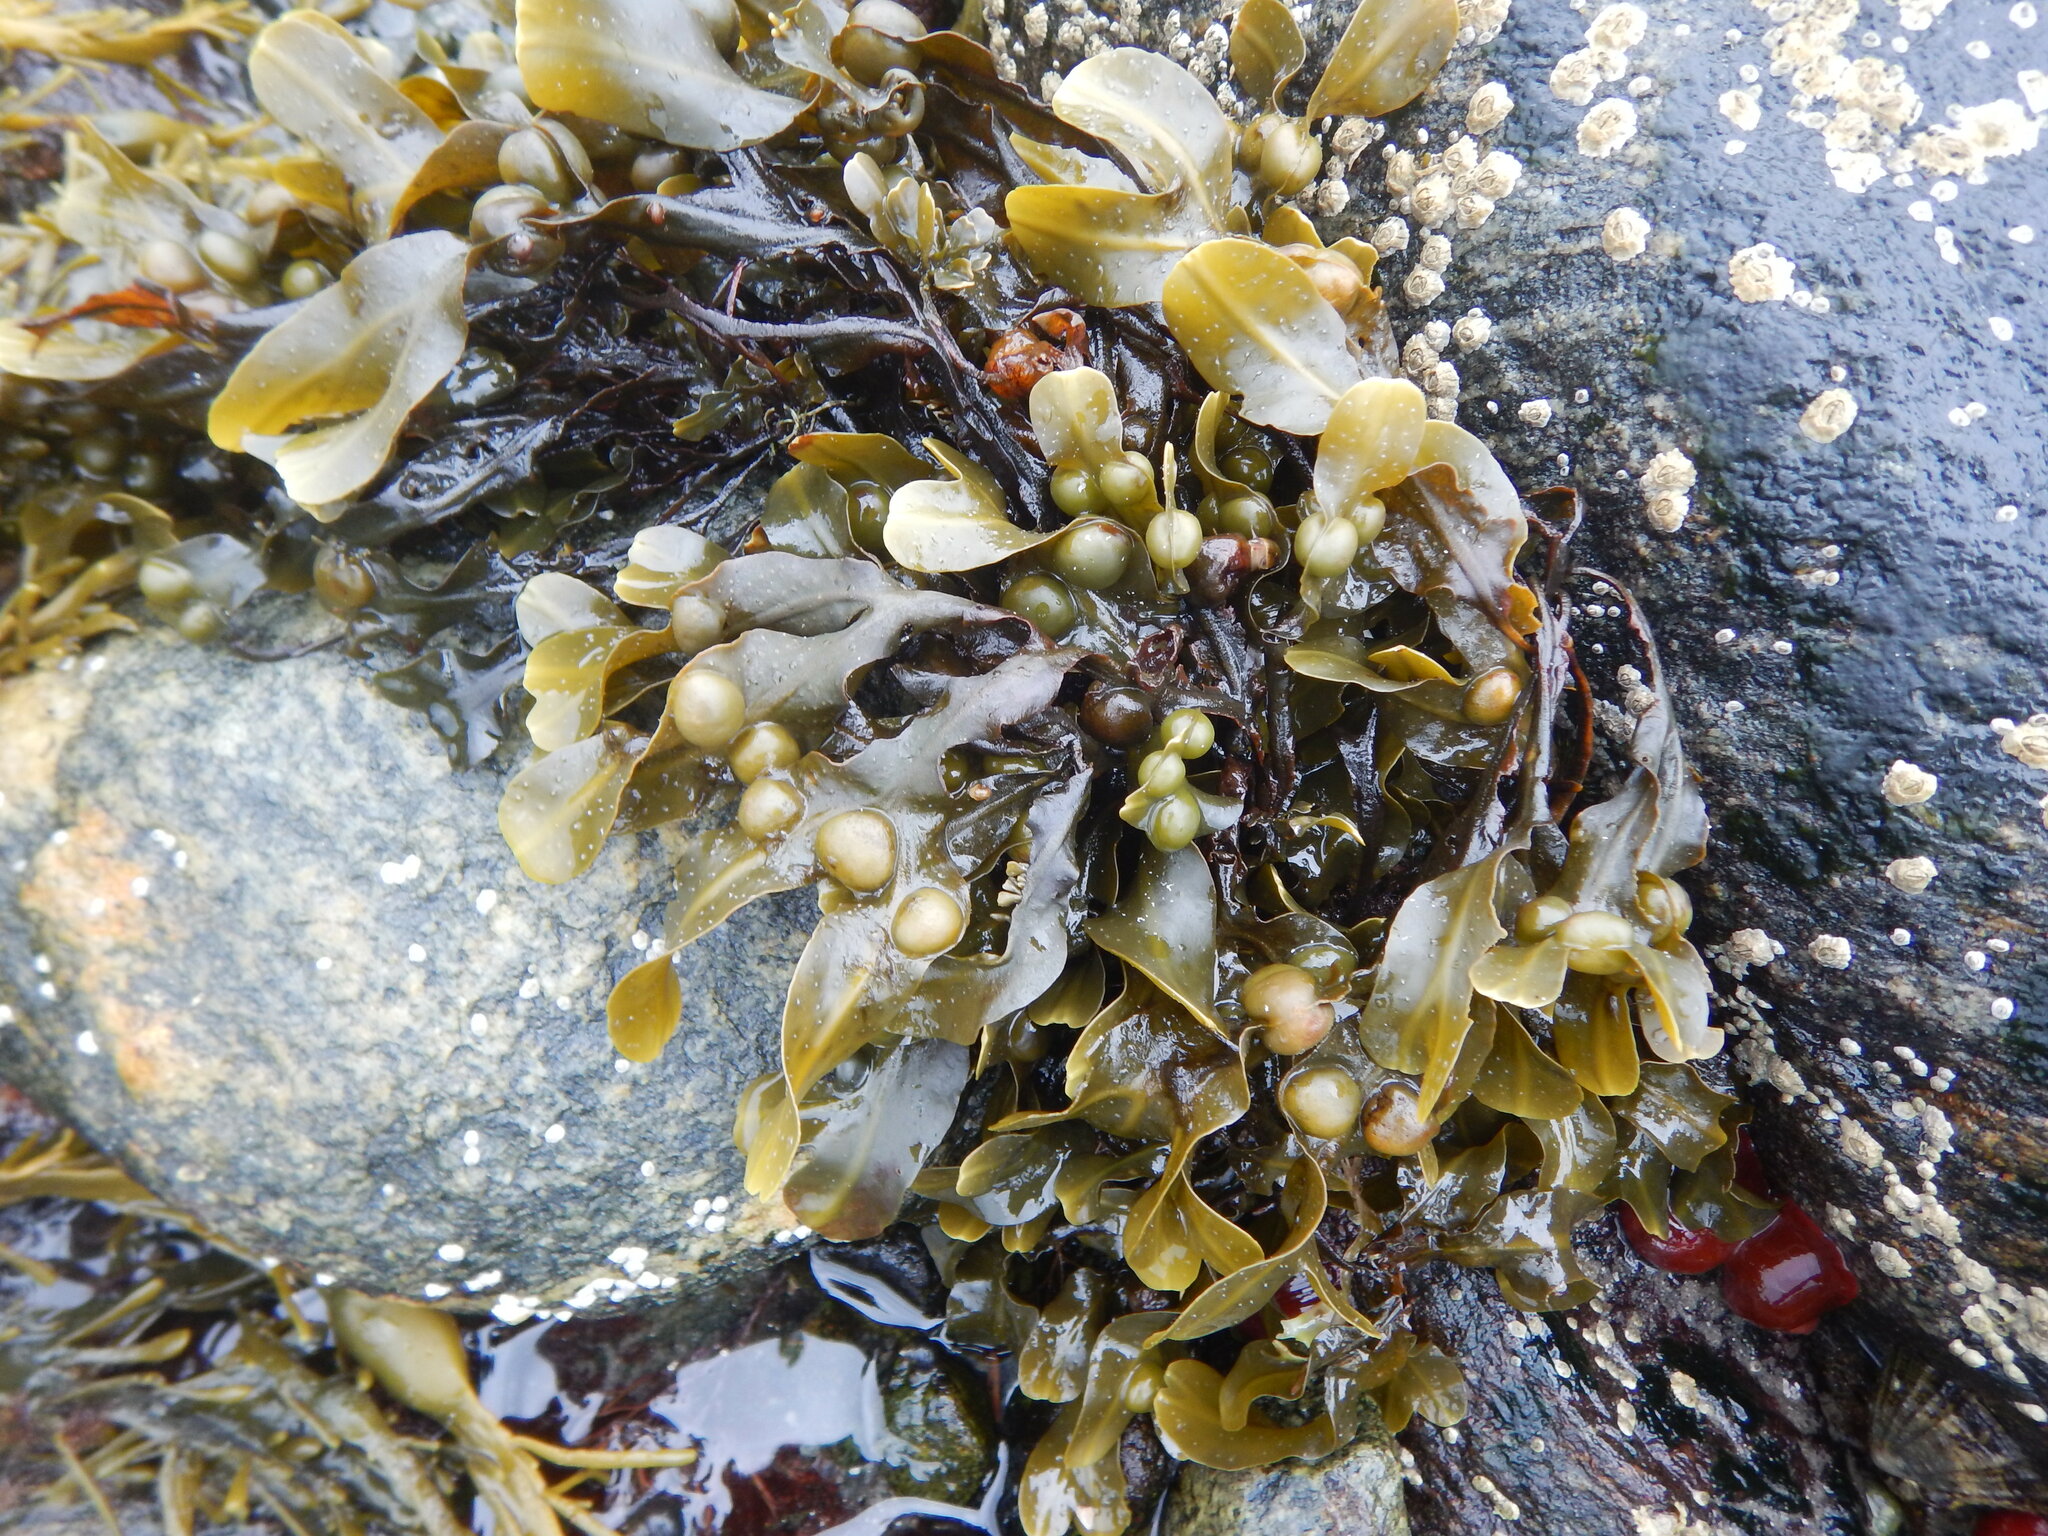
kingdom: Chromista
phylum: Ochrophyta
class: Phaeophyceae
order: Fucales
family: Fucaceae
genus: Fucus
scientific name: Fucus vesiculosus
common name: Bladder wrack
